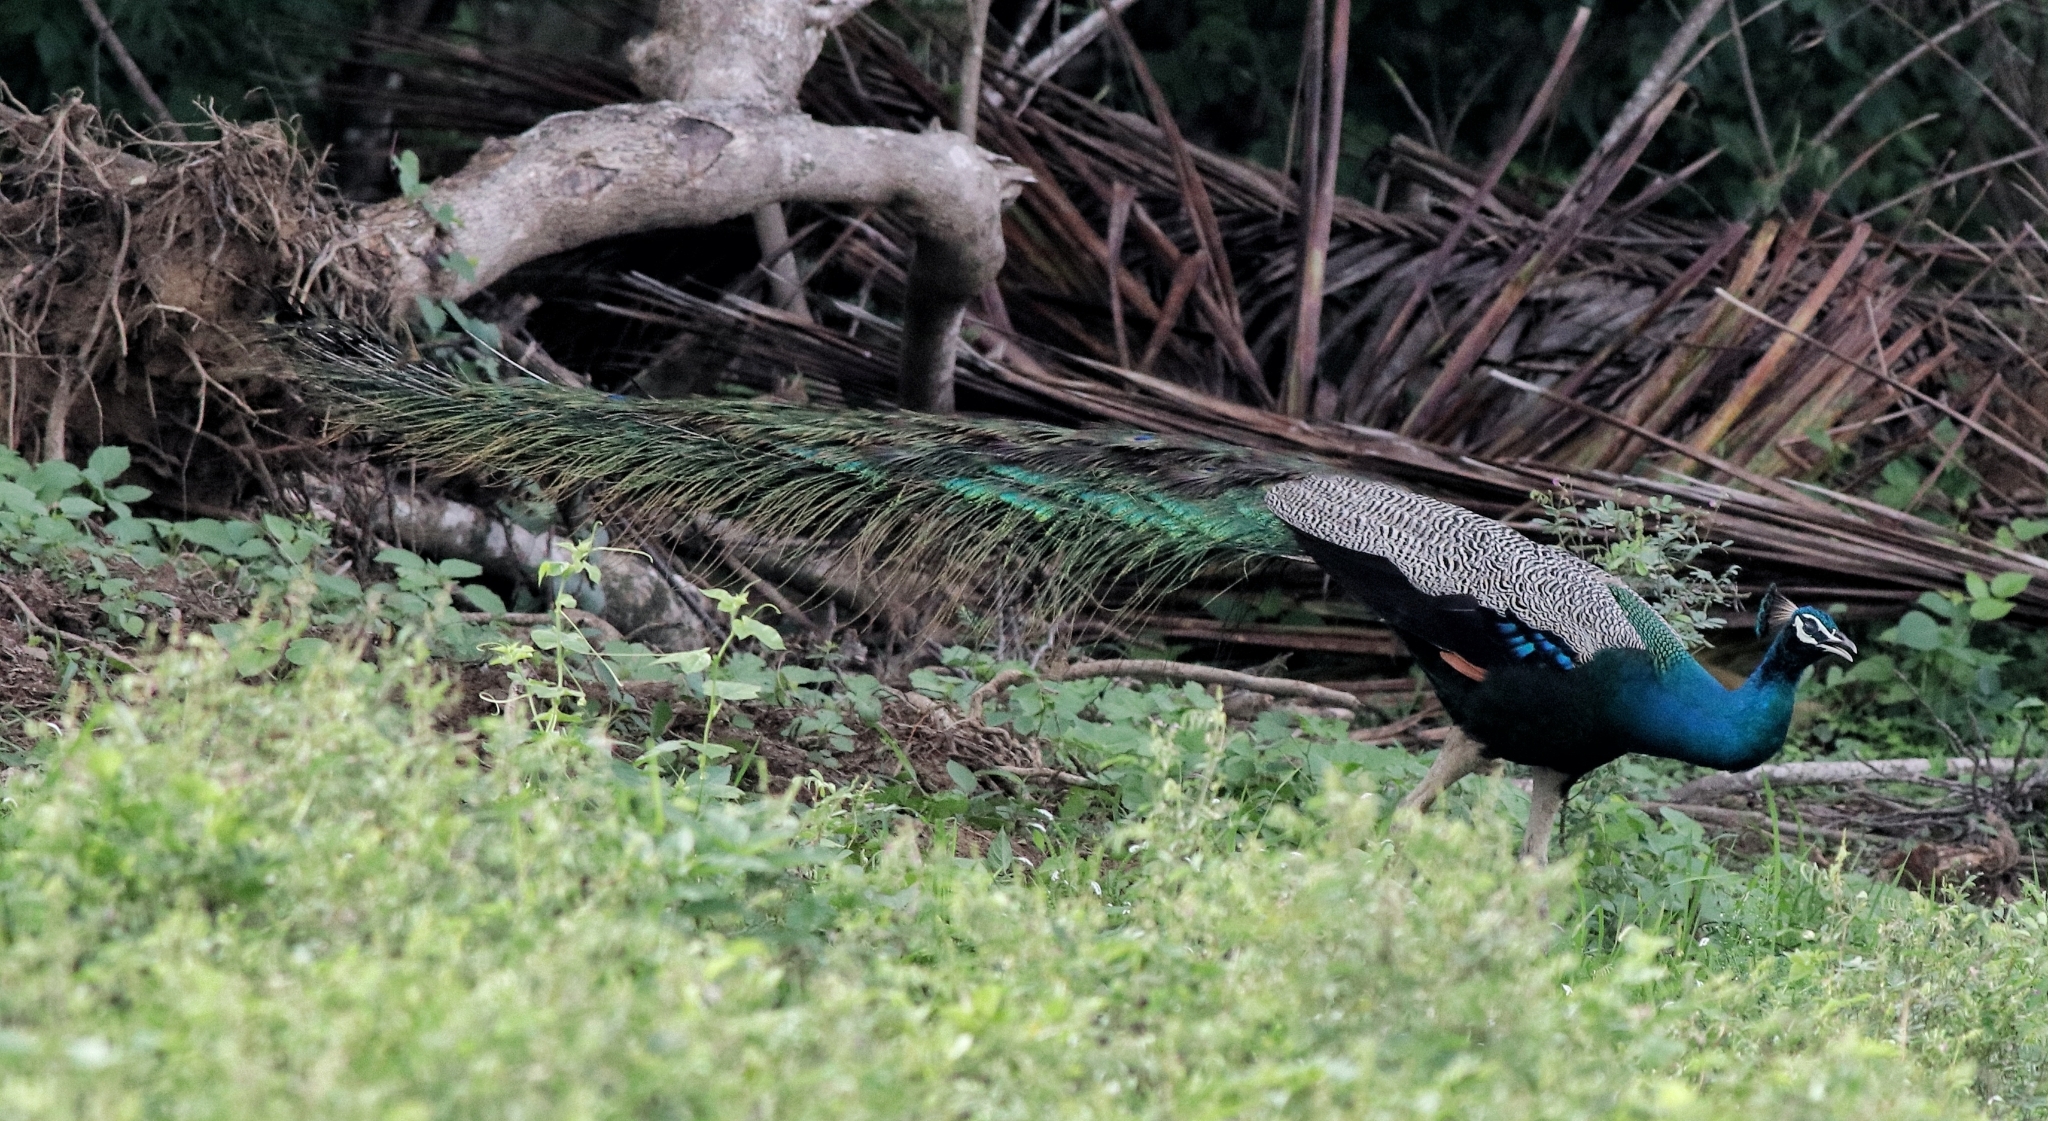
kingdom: Animalia
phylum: Chordata
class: Aves
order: Galliformes
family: Phasianidae
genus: Pavo
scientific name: Pavo cristatus
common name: Indian peafowl
